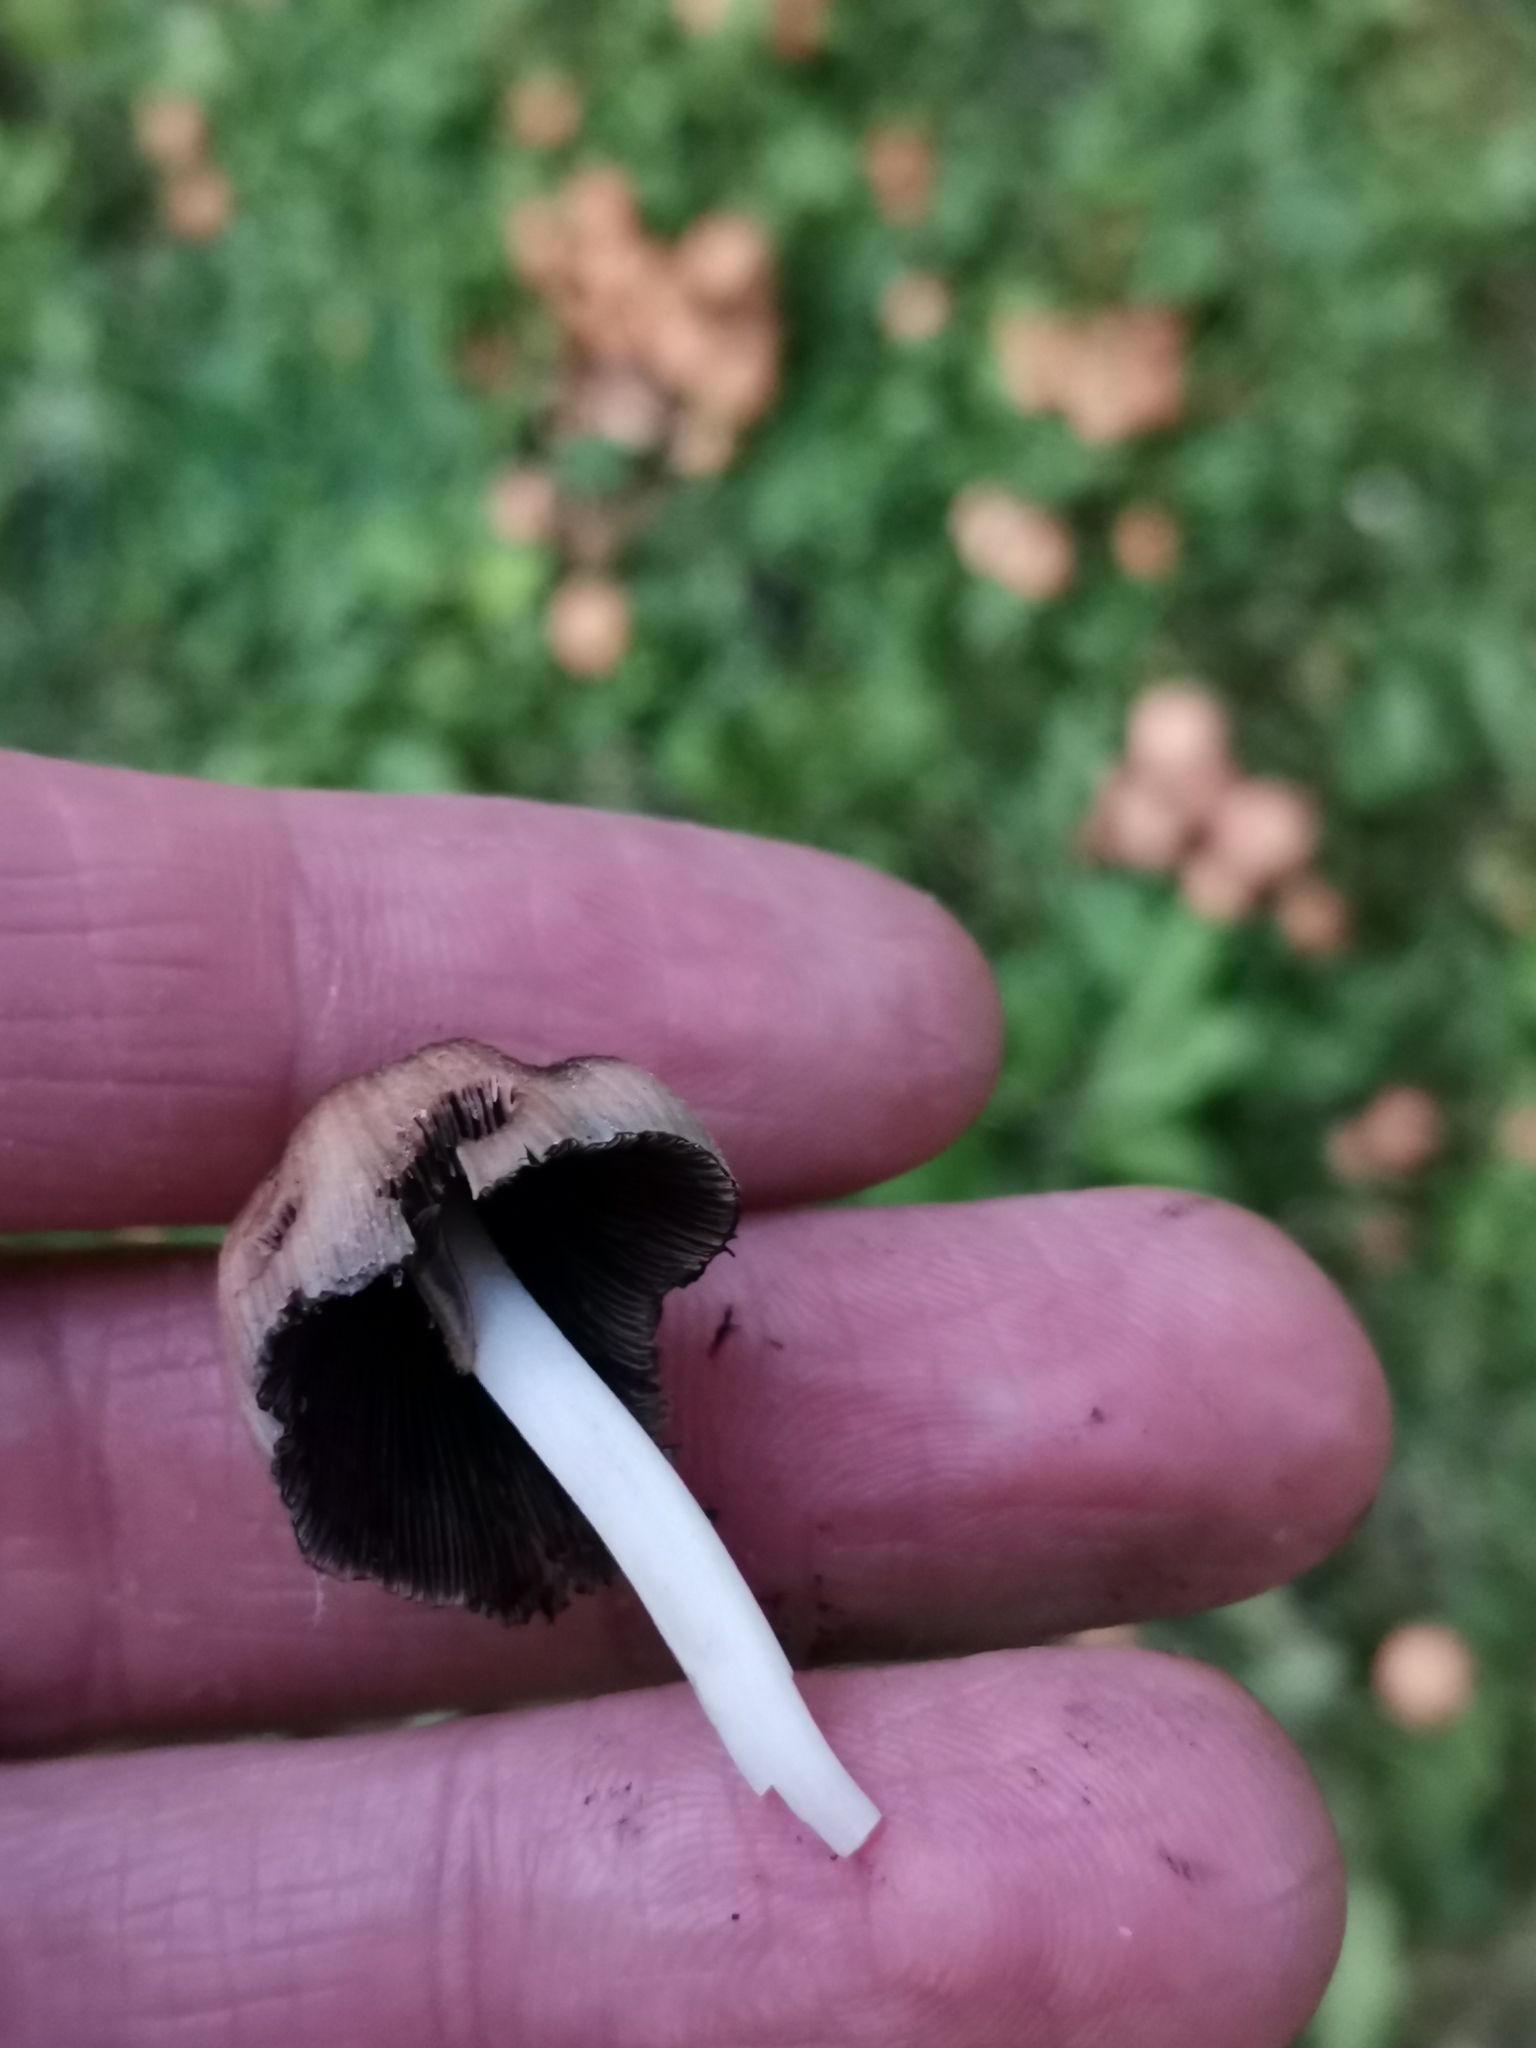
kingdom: Fungi
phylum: Basidiomycota
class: Agaricomycetes
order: Agaricales
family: Psathyrellaceae
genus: Coprinellus
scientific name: Coprinellus micaceus
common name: Glistening ink-cap
